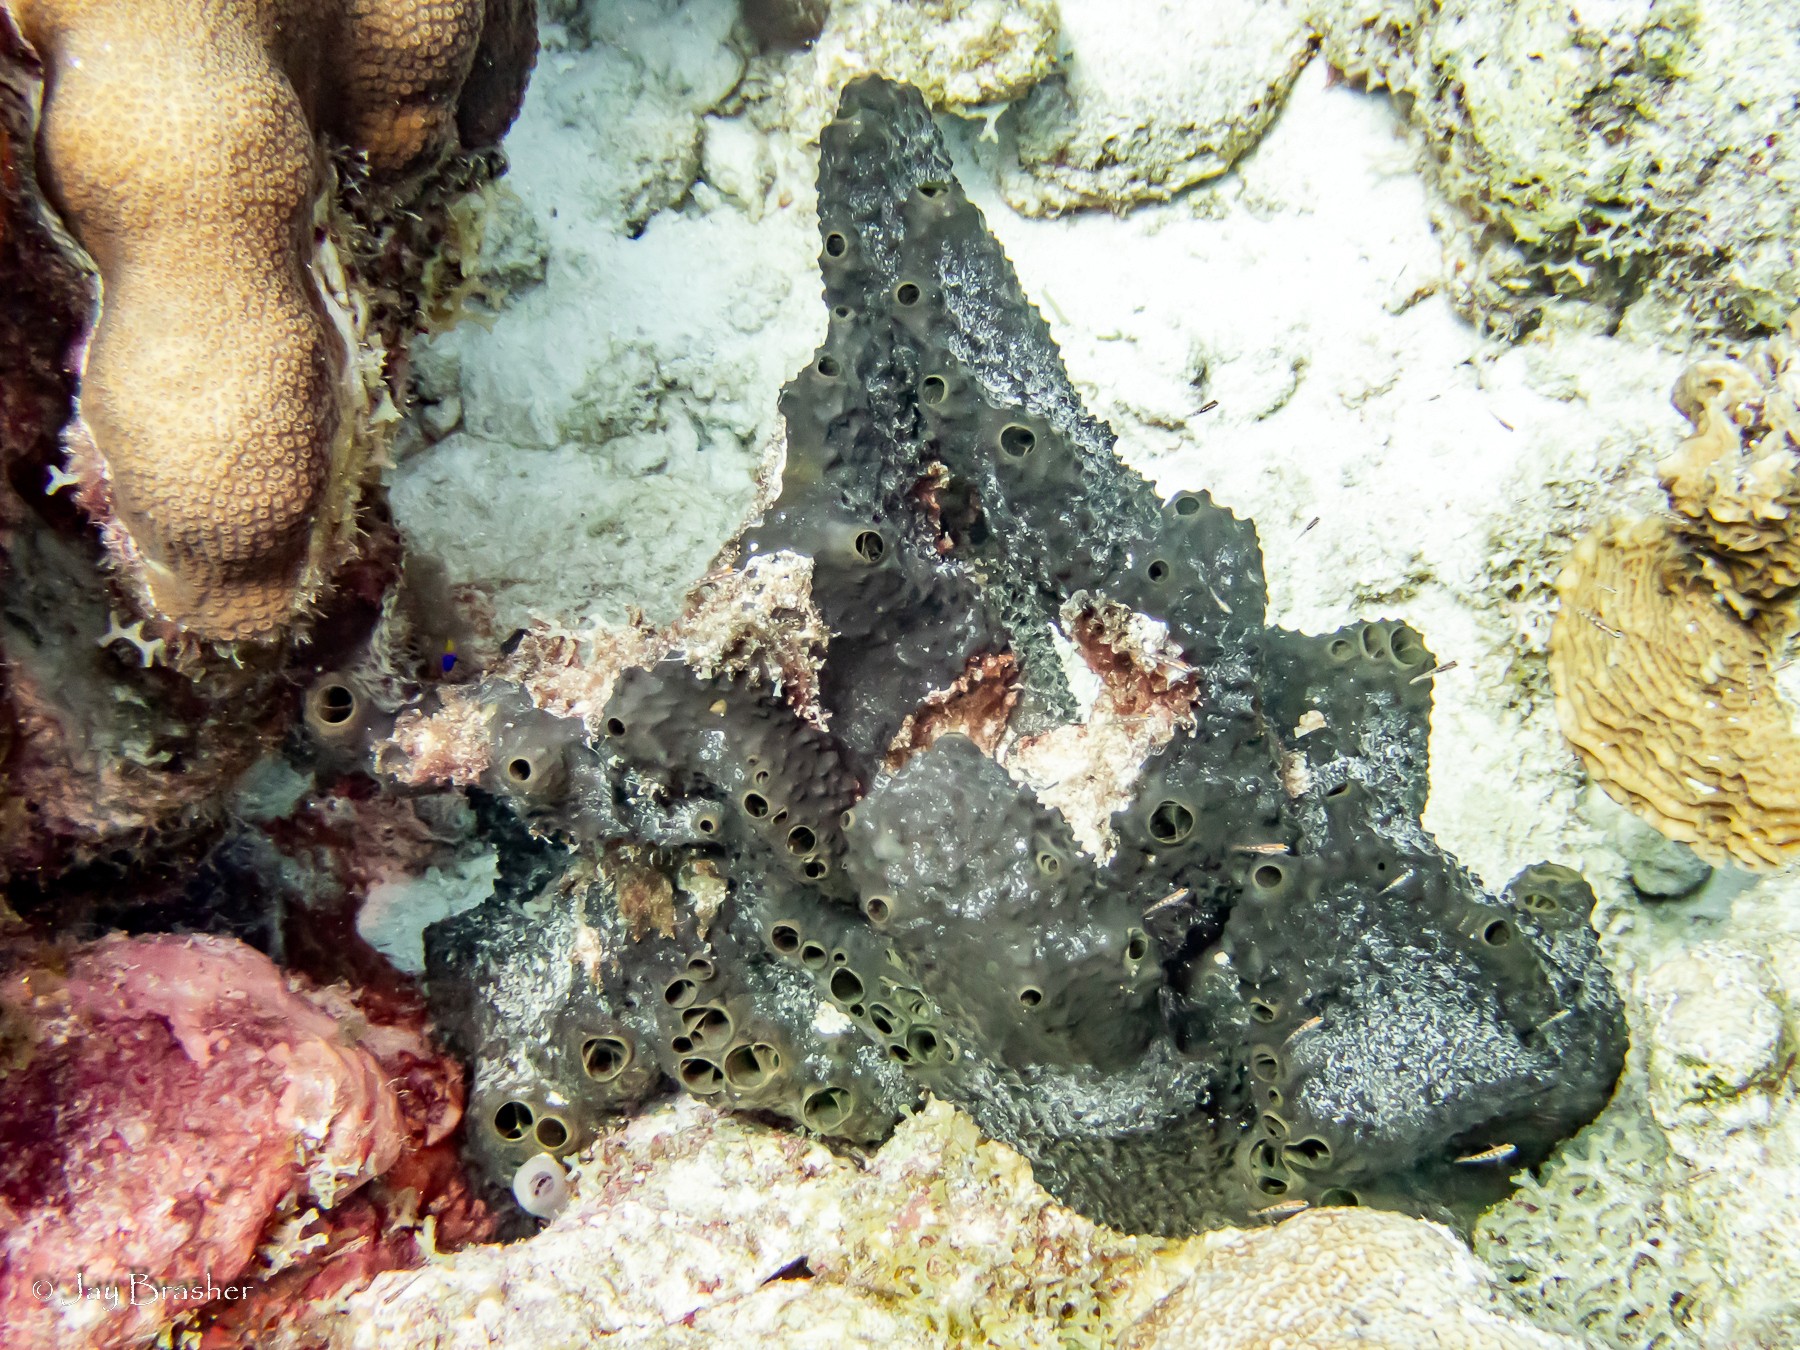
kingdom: Animalia
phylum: Porifera
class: Demospongiae
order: Dictyoceratida
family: Thorectidae
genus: Smenospongia
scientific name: Smenospongia conulosa
